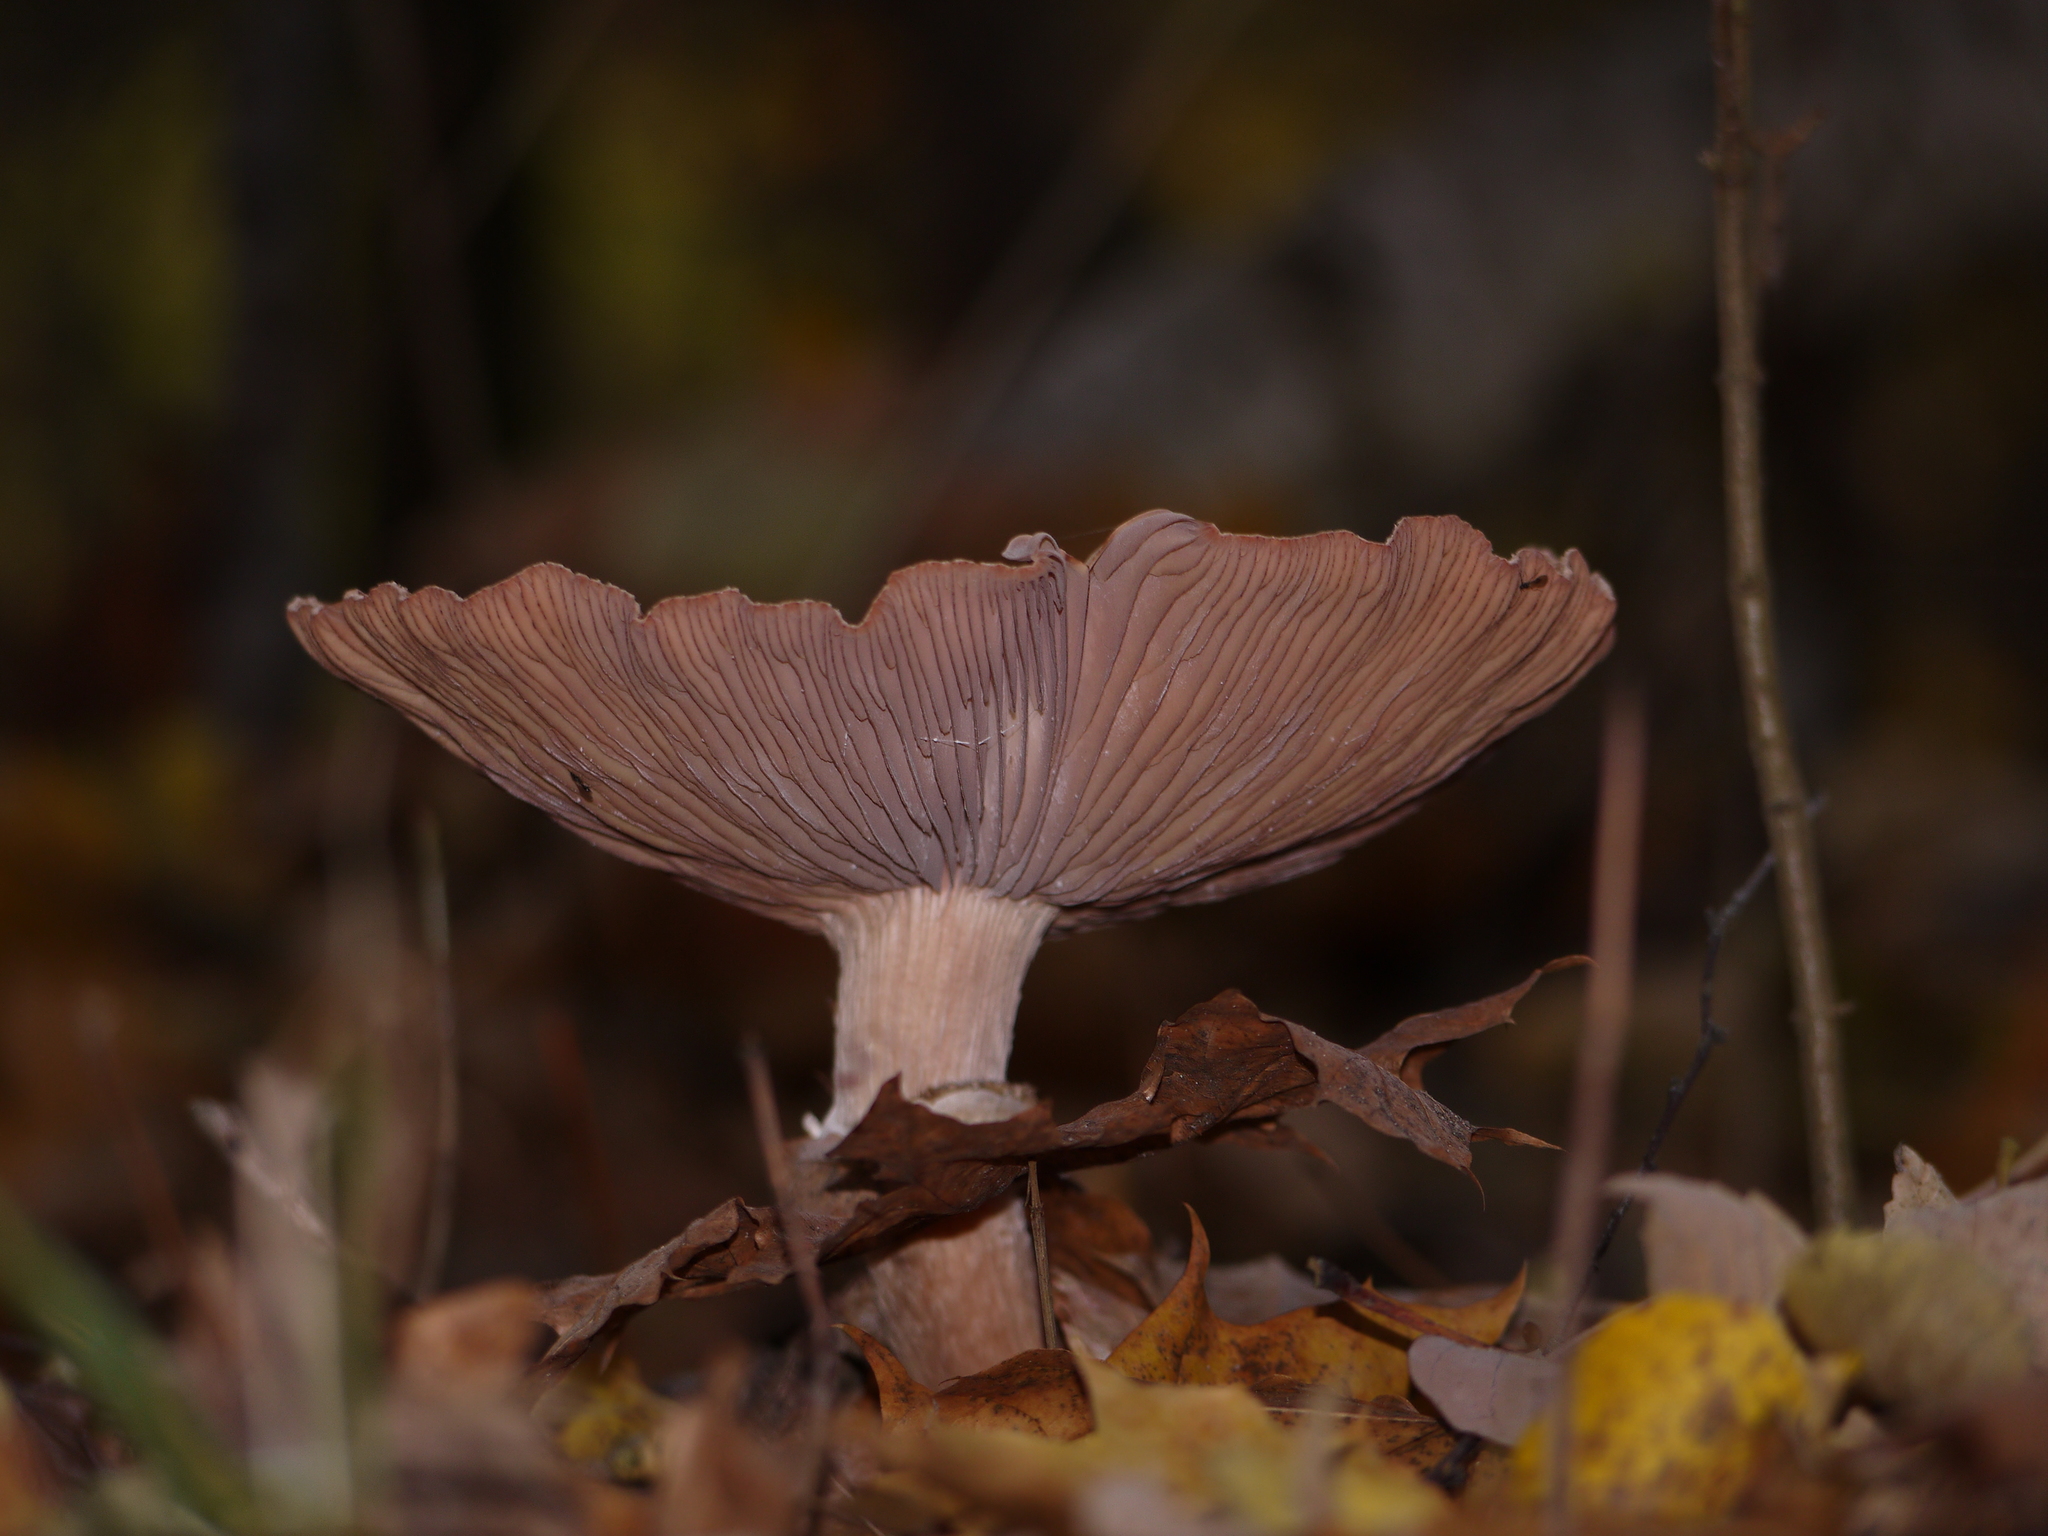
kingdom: Fungi
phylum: Basidiomycota
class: Agaricomycetes
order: Agaricales
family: Physalacriaceae
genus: Armillaria
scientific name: Armillaria mellea
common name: Honey fungus
